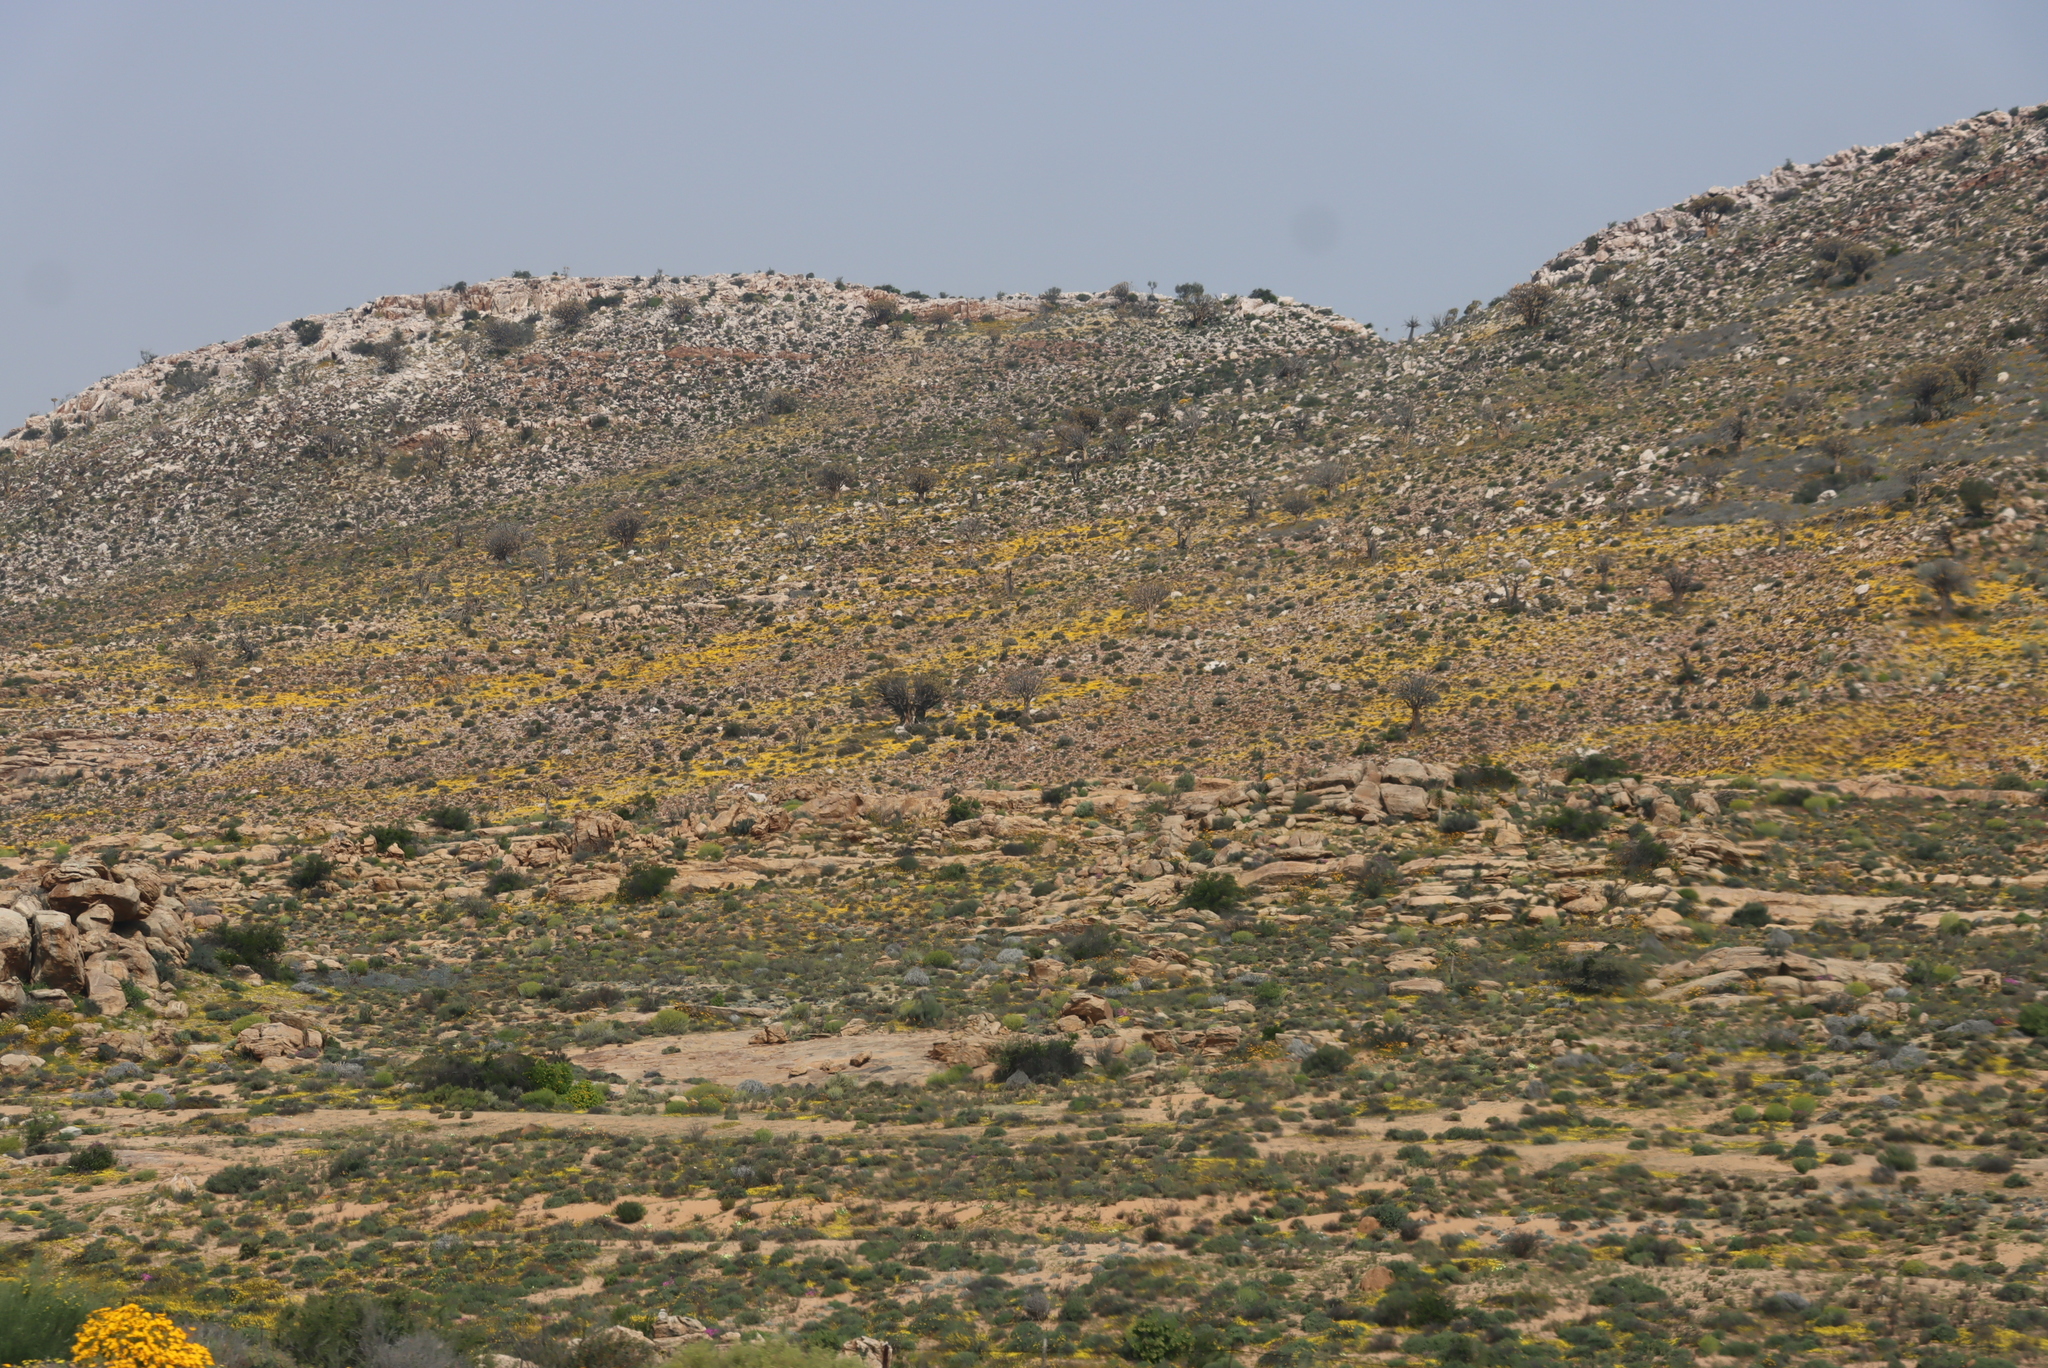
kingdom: Plantae
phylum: Tracheophyta
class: Liliopsida
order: Asparagales
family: Asphodelaceae
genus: Aloidendron
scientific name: Aloidendron dichotomum
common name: Quiver tree
